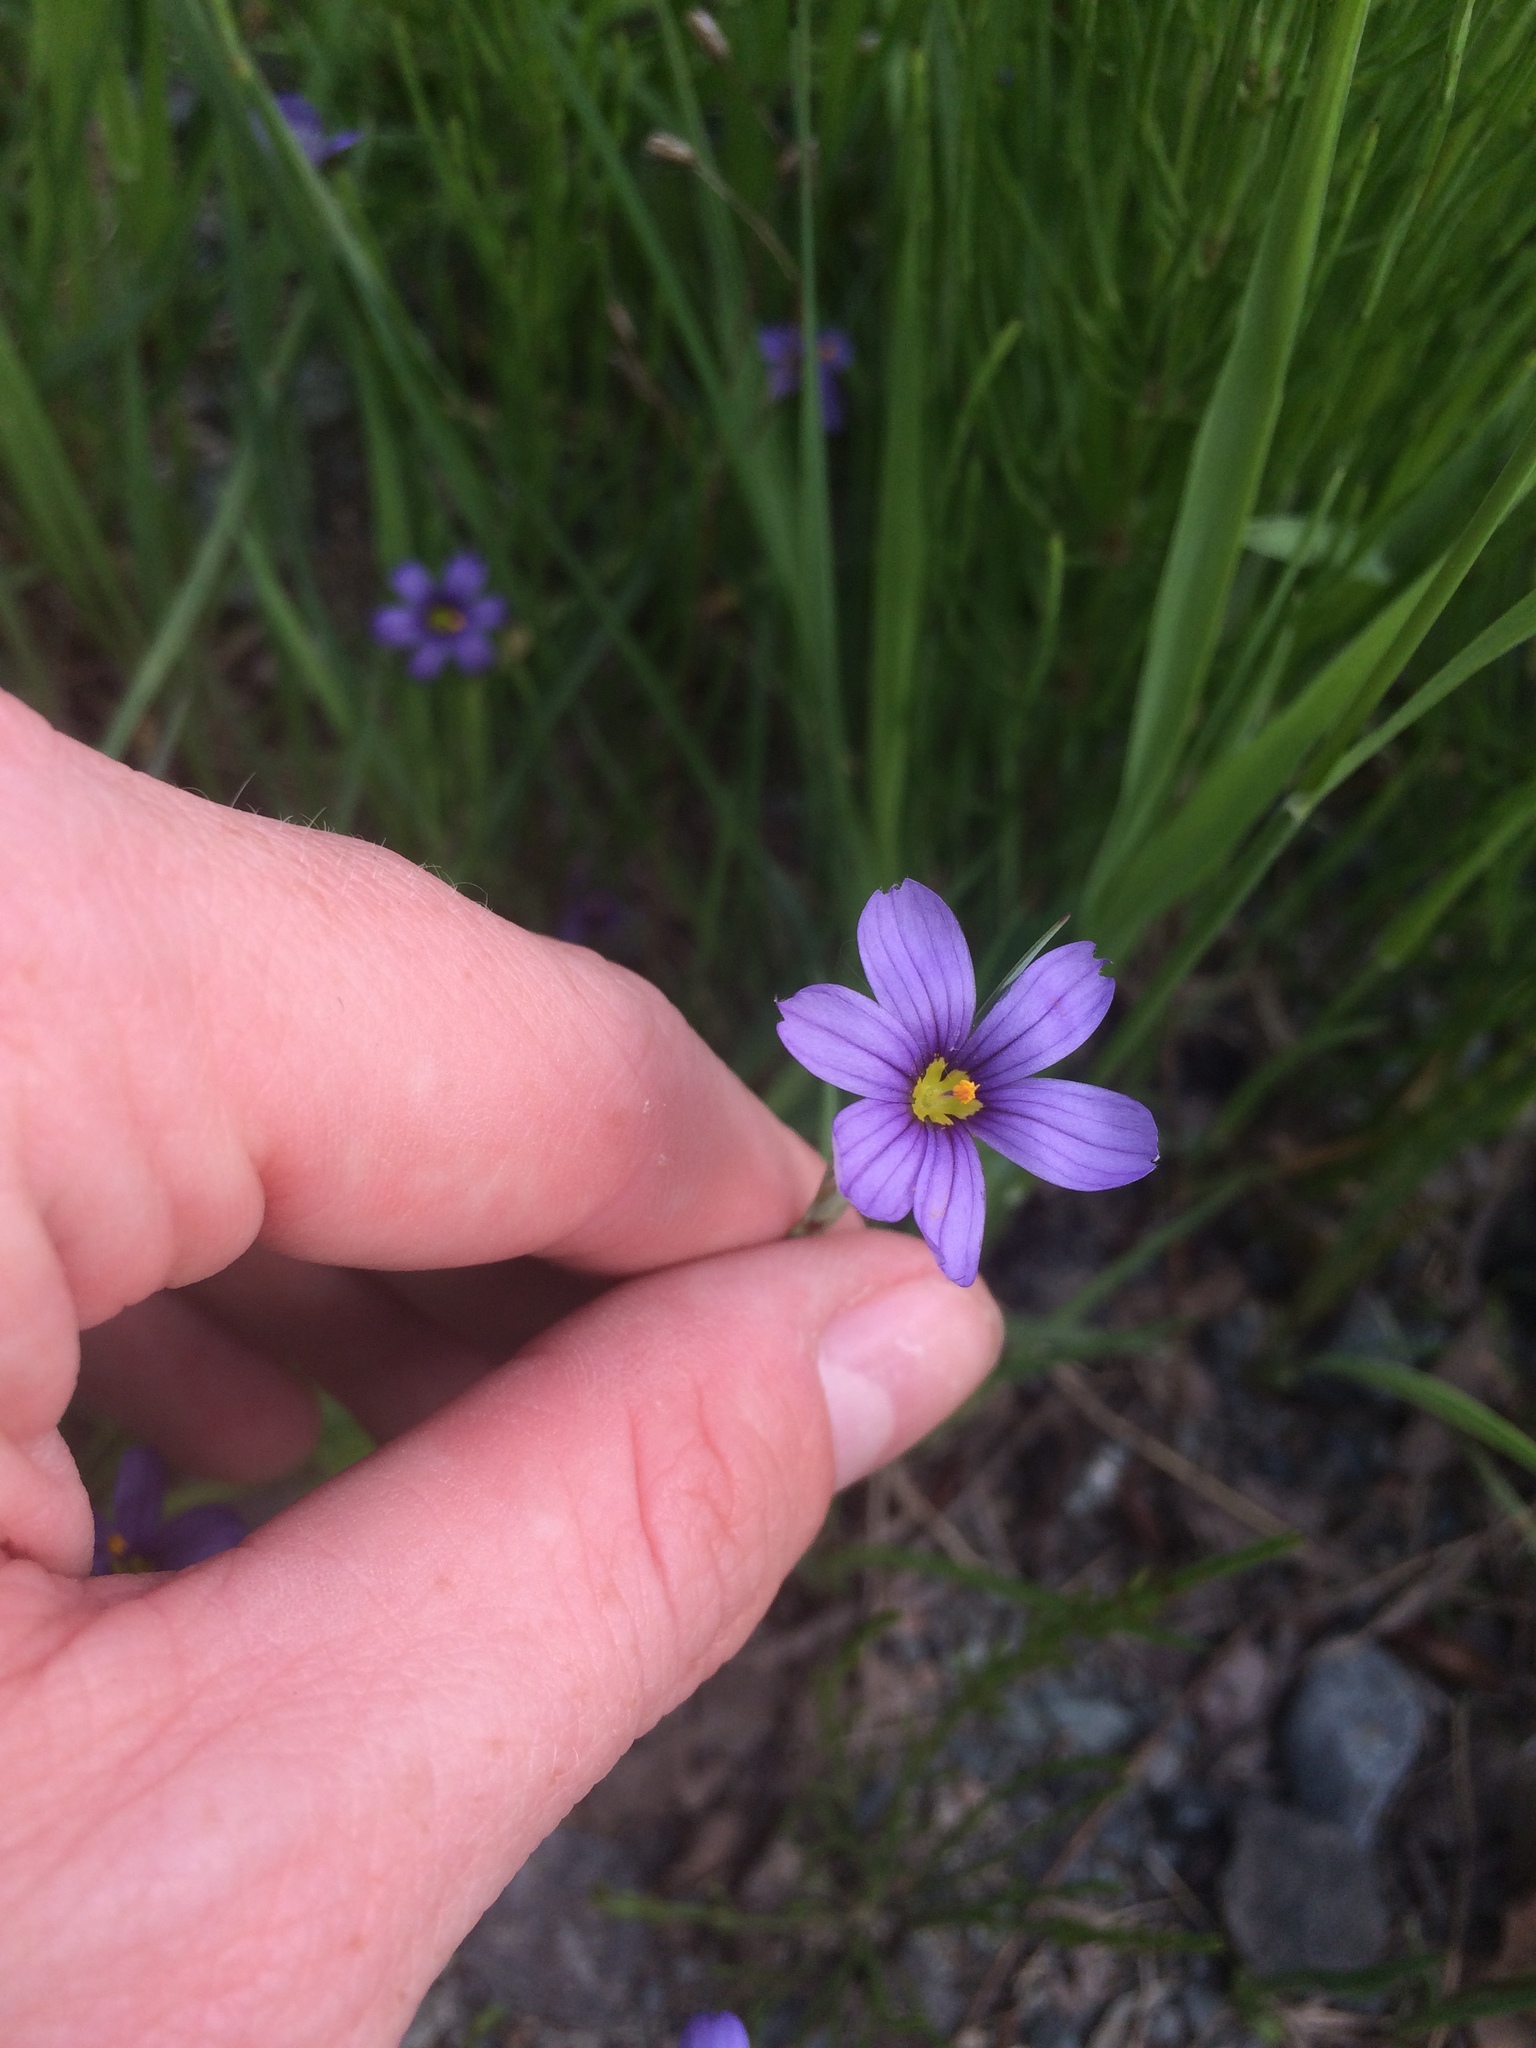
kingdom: Plantae
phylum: Tracheophyta
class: Liliopsida
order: Asparagales
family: Iridaceae
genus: Sisyrinchium
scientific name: Sisyrinchium montanum
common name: American blue-eyed-grass
